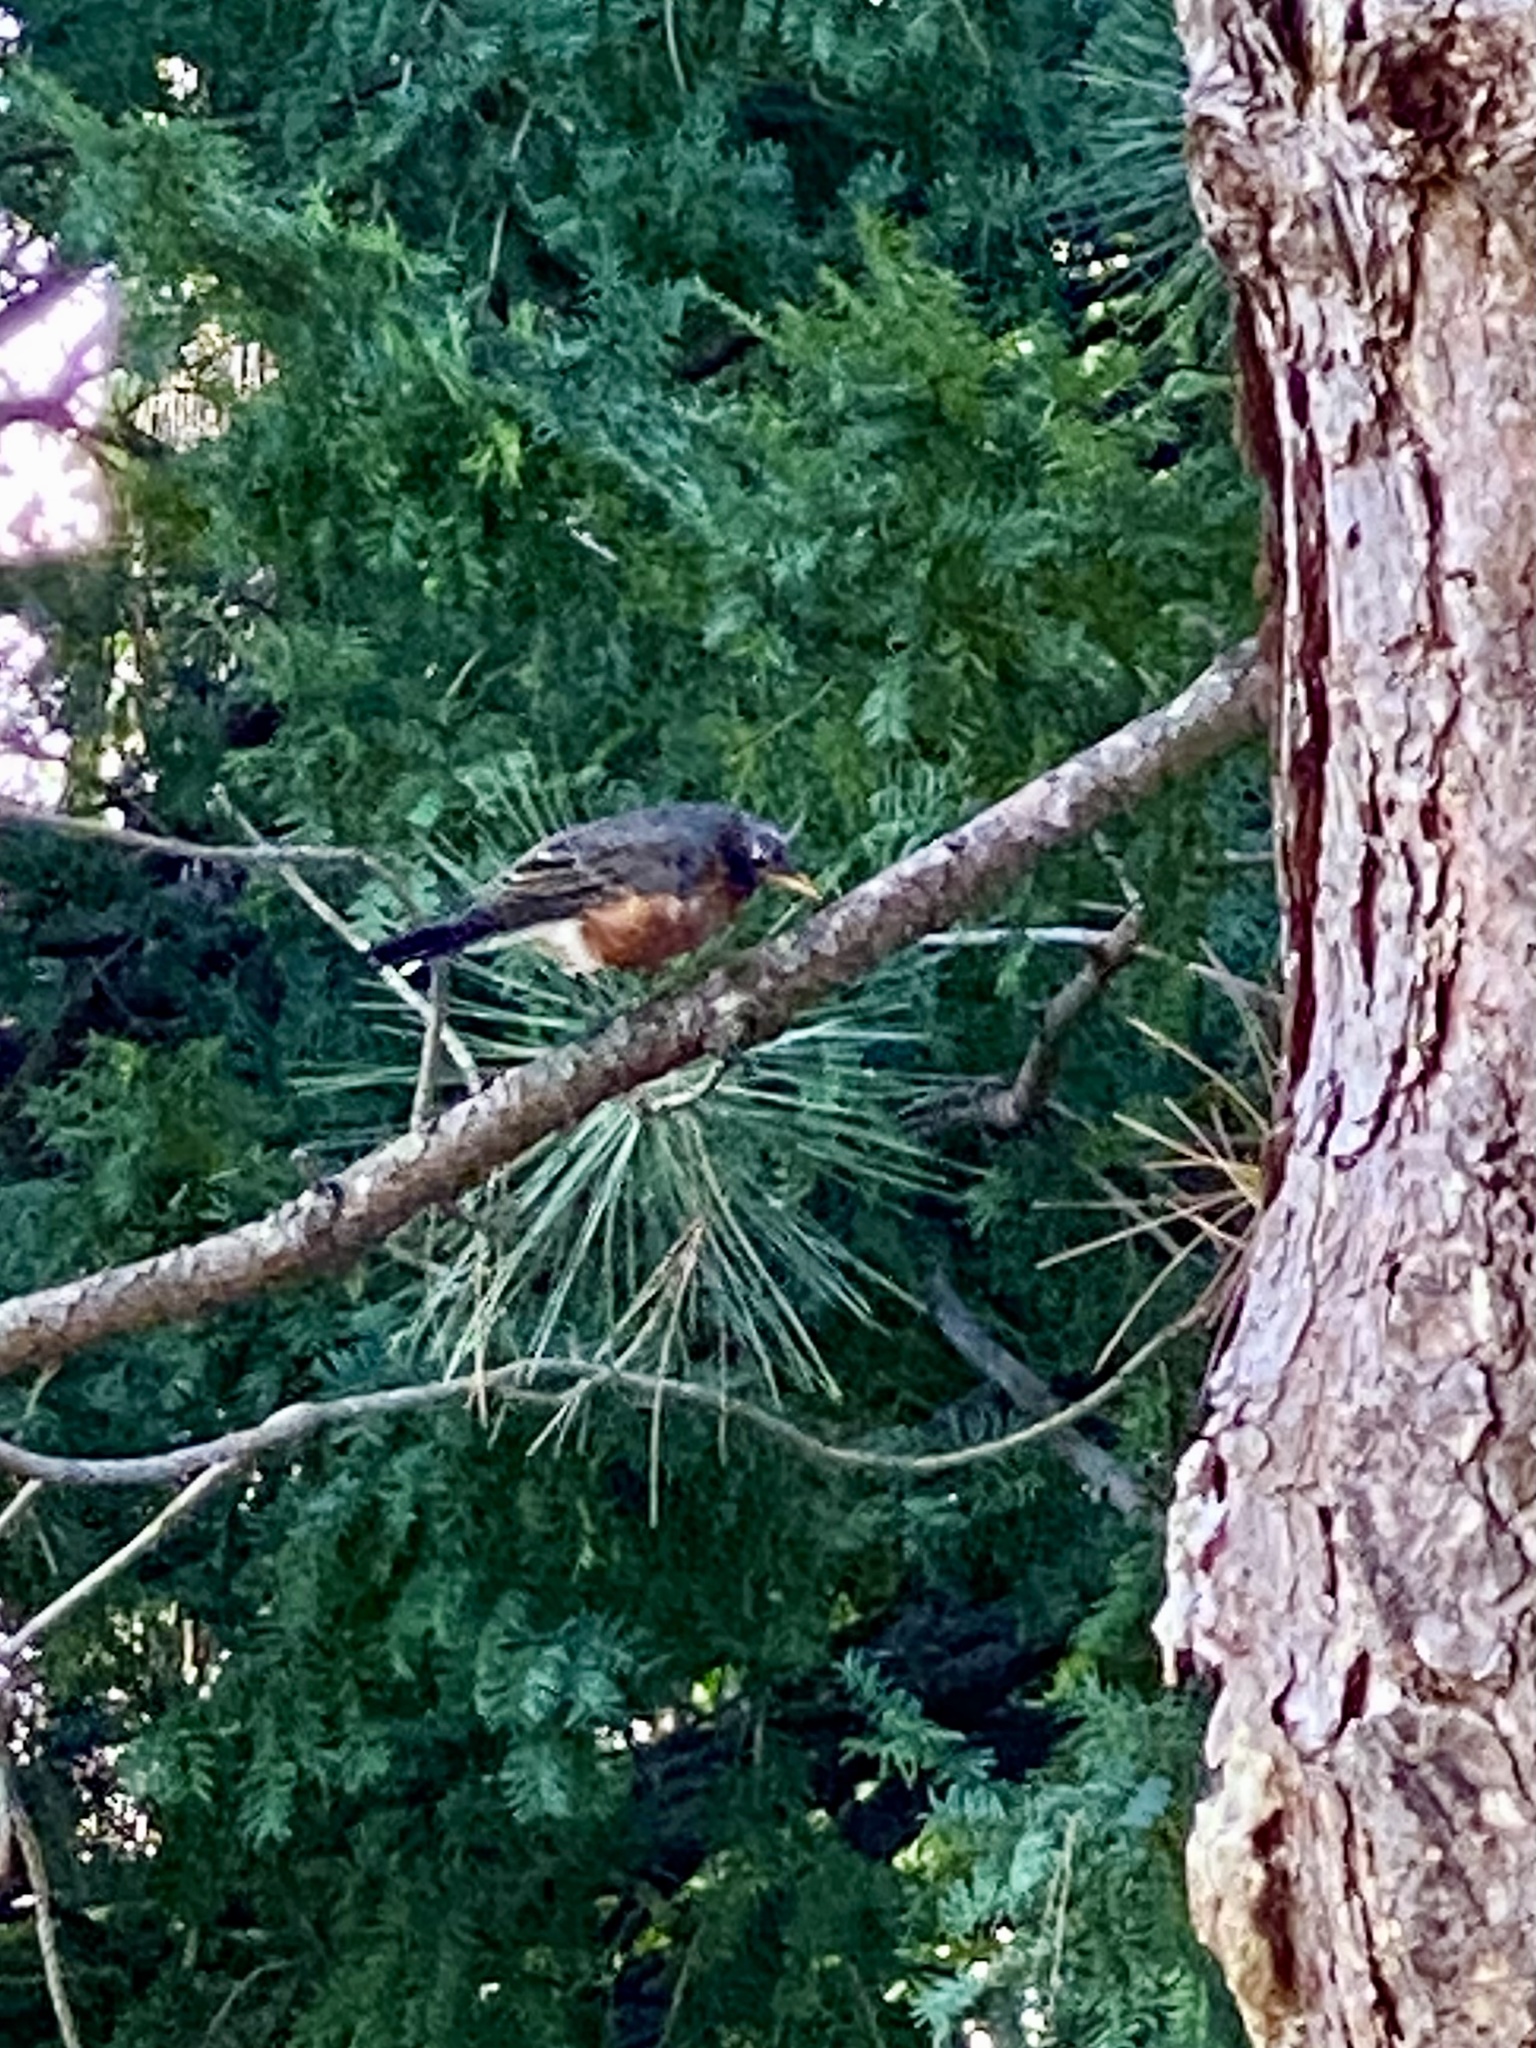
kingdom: Animalia
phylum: Chordata
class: Aves
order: Passeriformes
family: Turdidae
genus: Turdus
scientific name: Turdus migratorius
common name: American robin
